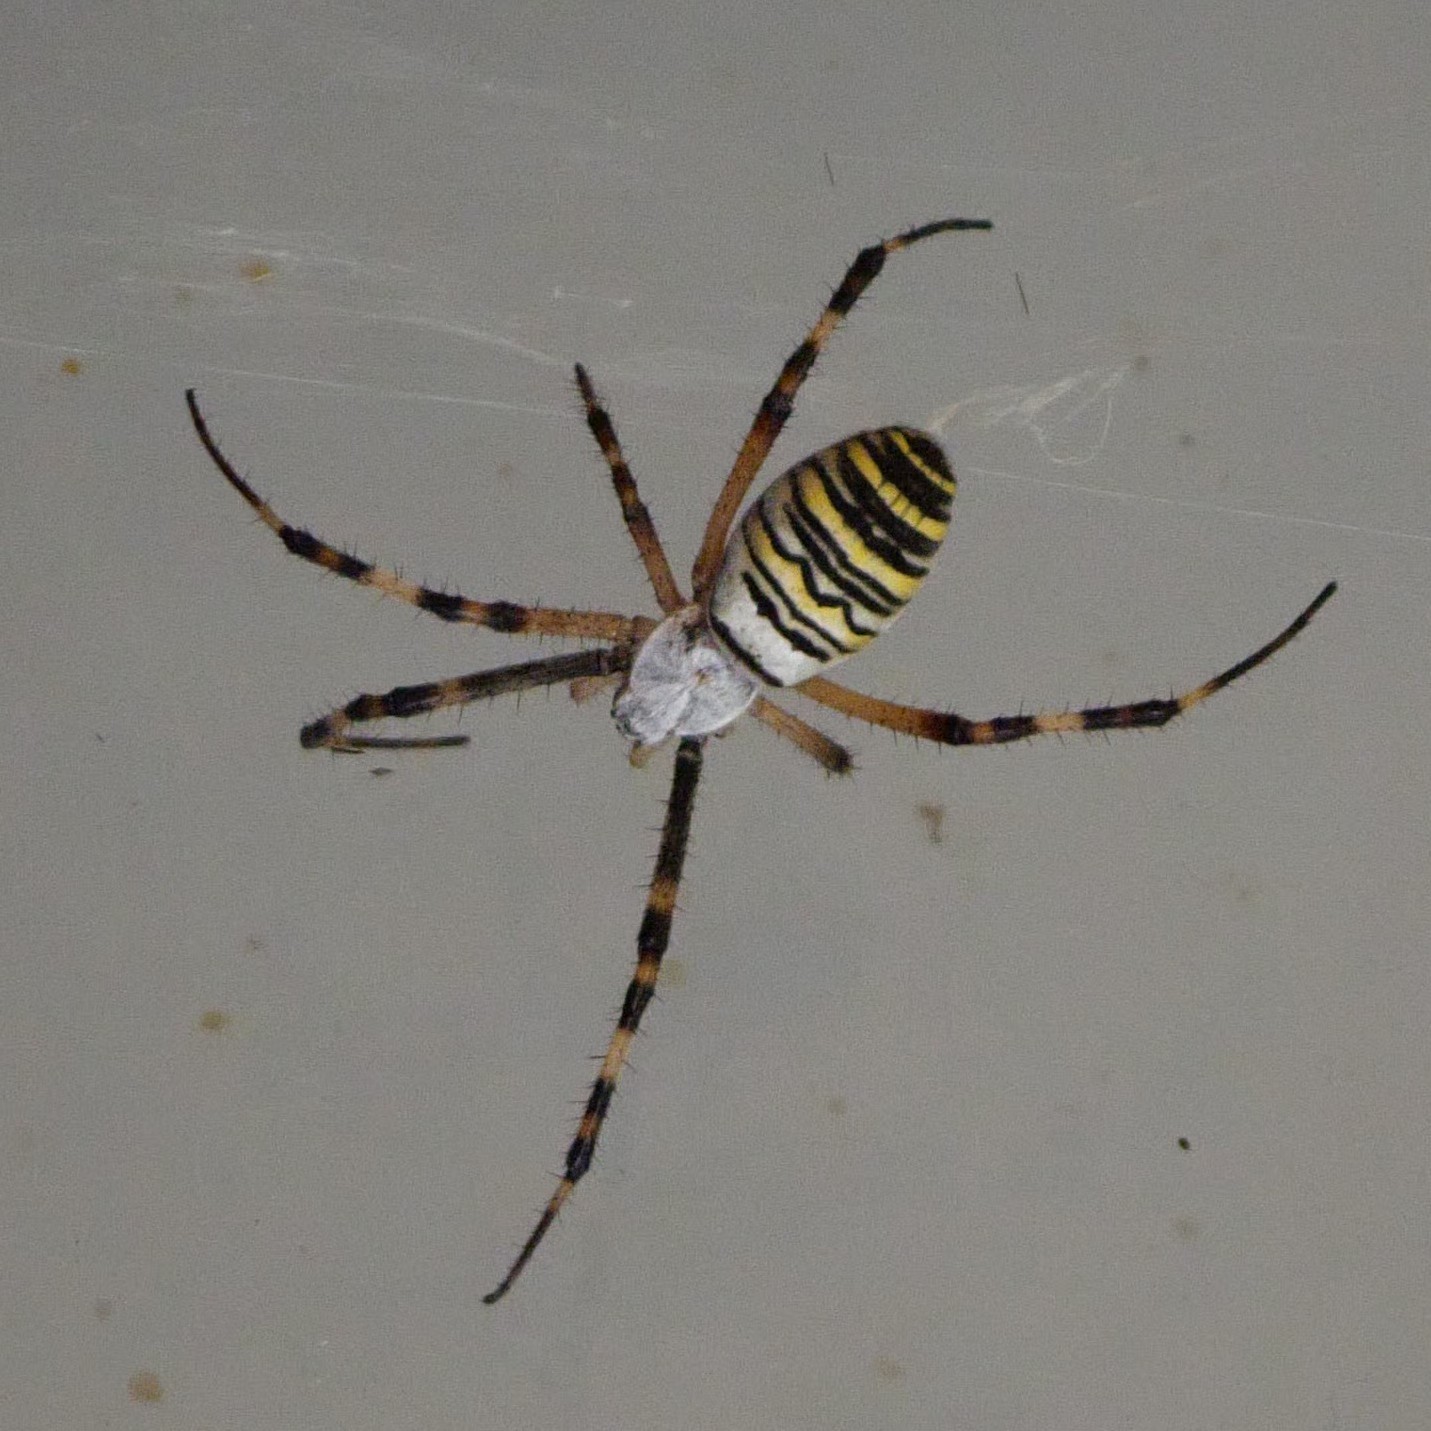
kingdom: Animalia
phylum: Arthropoda
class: Arachnida
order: Araneae
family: Araneidae
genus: Argiope
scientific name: Argiope bruennichi
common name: Wasp spider
